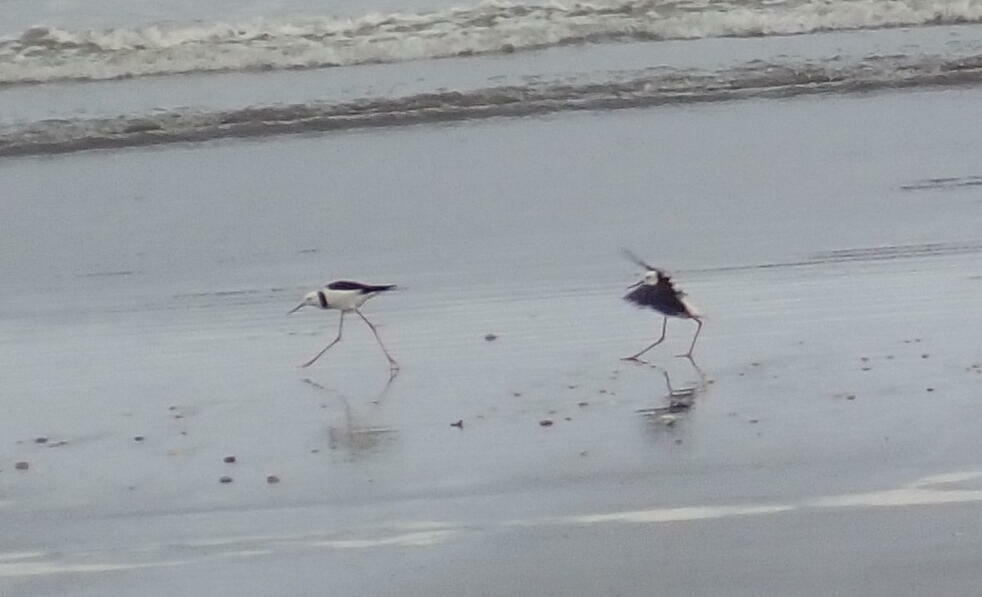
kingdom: Animalia
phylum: Chordata
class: Aves
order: Charadriiformes
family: Recurvirostridae
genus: Himantopus
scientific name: Himantopus leucocephalus
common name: White-headed stilt
